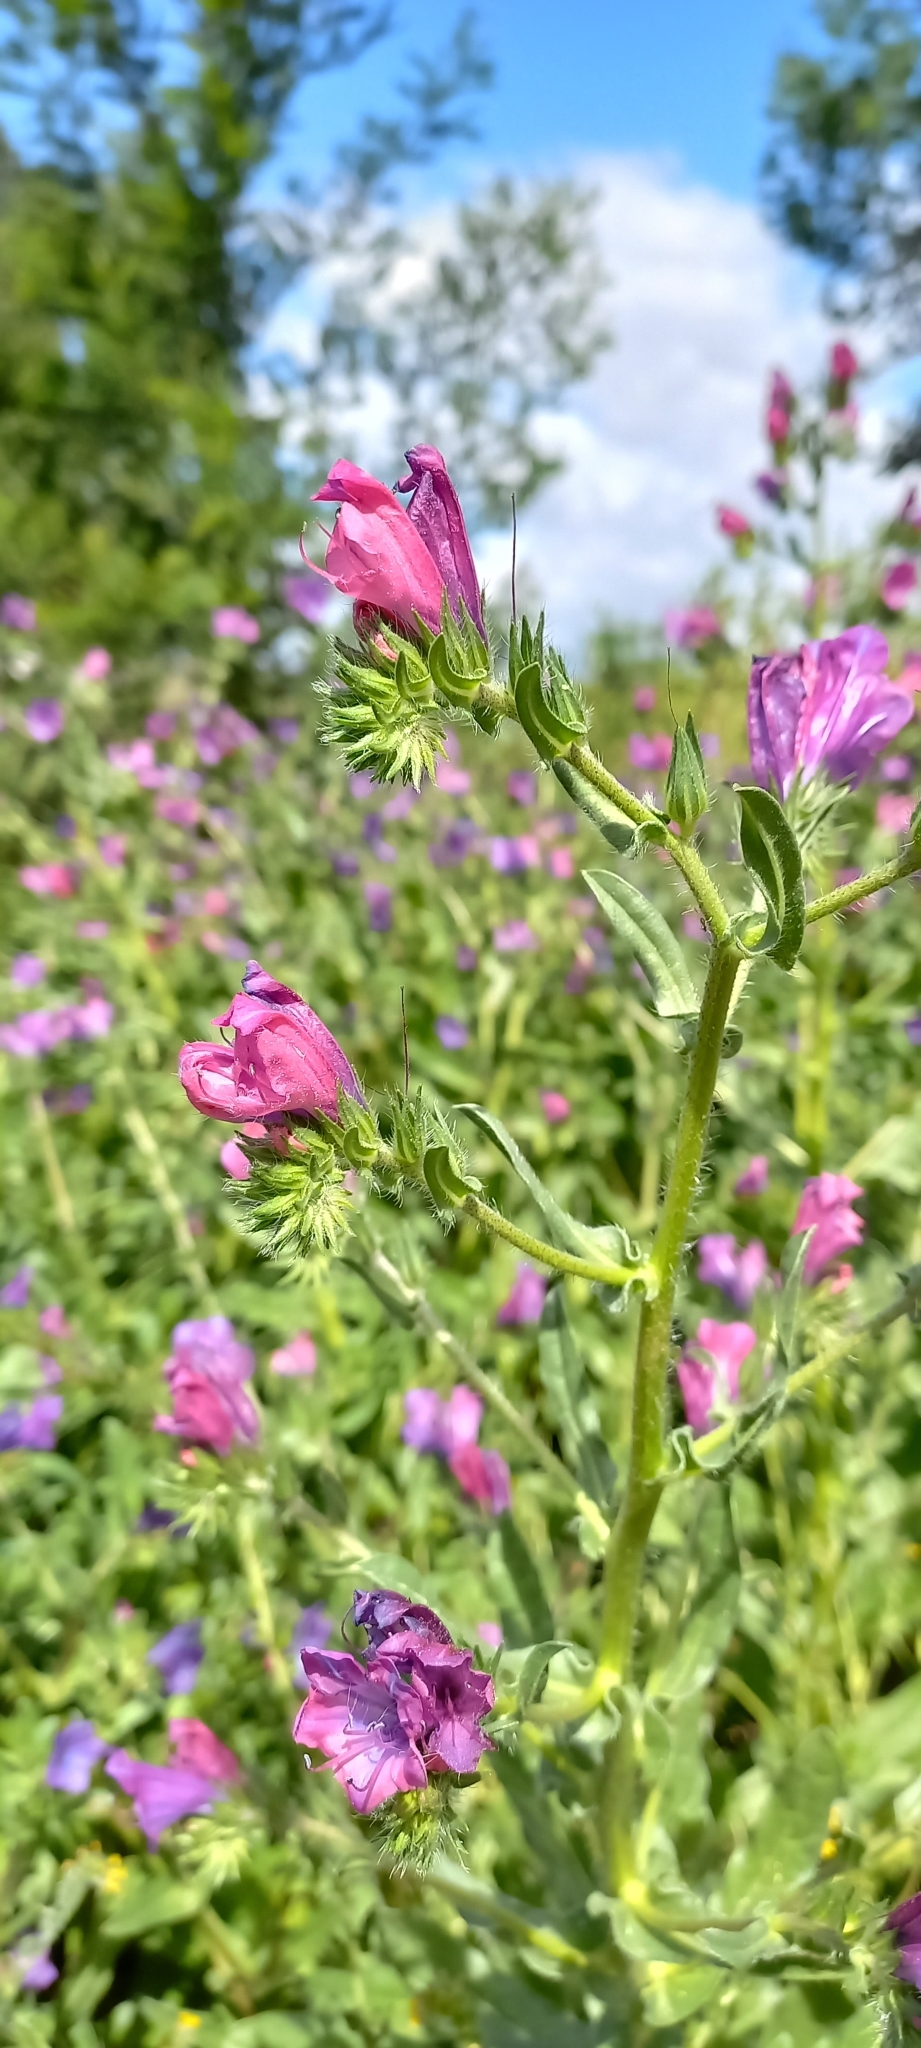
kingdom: Plantae
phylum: Tracheophyta
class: Magnoliopsida
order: Boraginales
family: Boraginaceae
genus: Echium
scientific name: Echium plantagineum
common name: Purple viper's-bugloss
